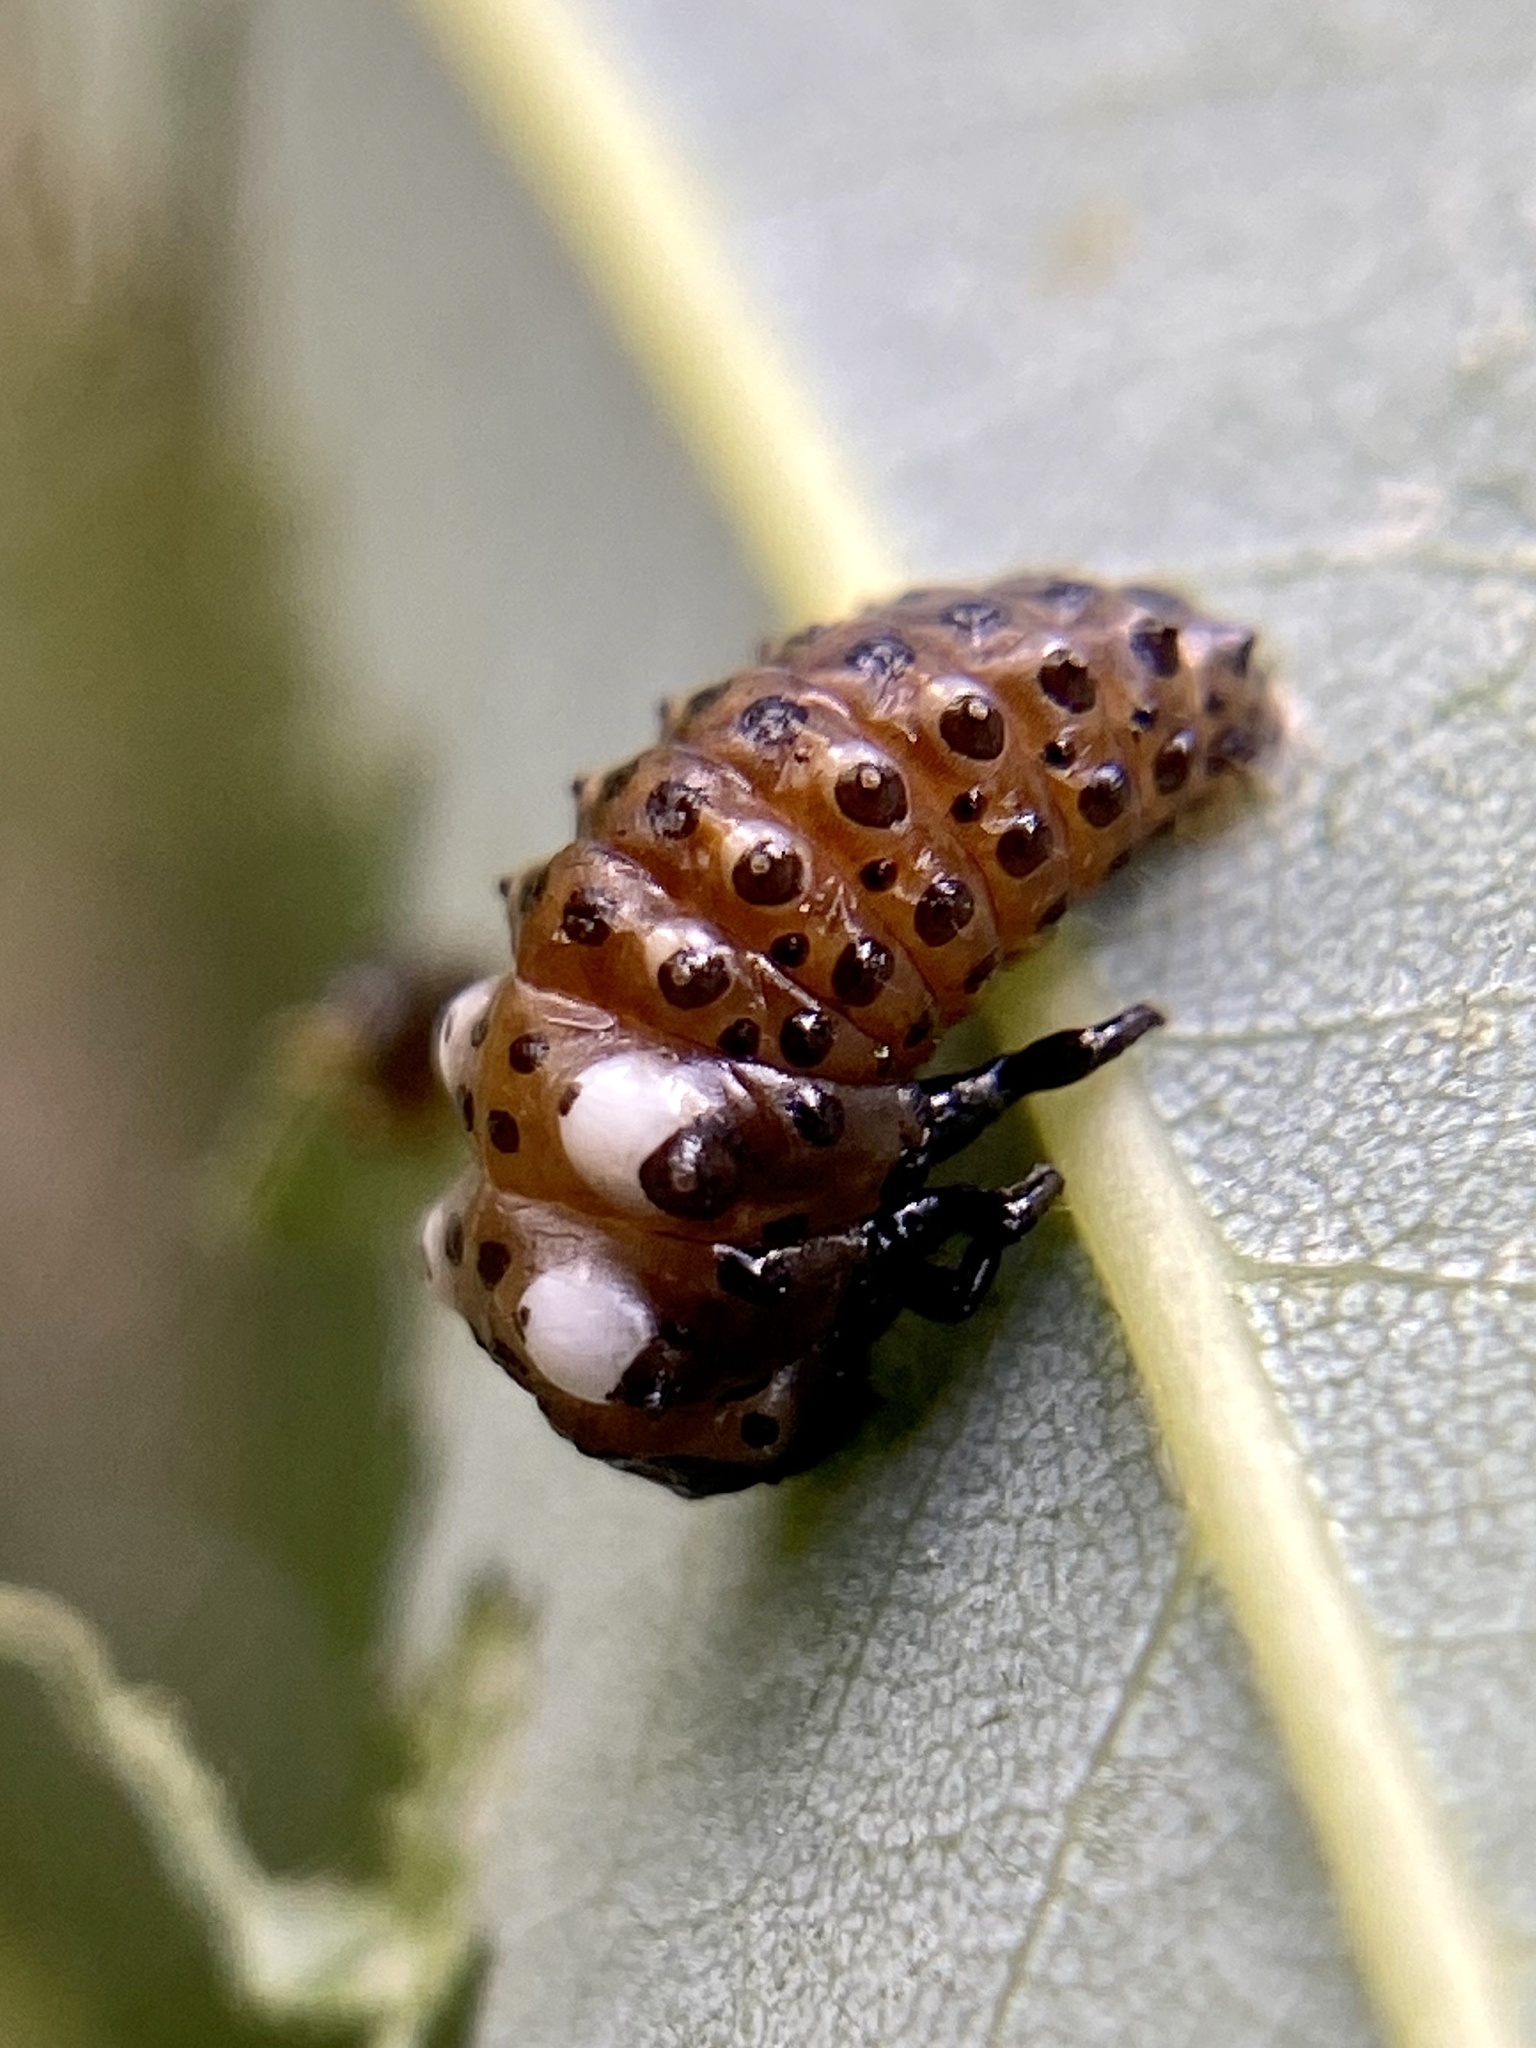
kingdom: Animalia
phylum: Arthropoda
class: Insecta
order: Coleoptera
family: Chrysomelidae
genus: Aethiopocassis
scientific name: Aethiopocassis scripta
